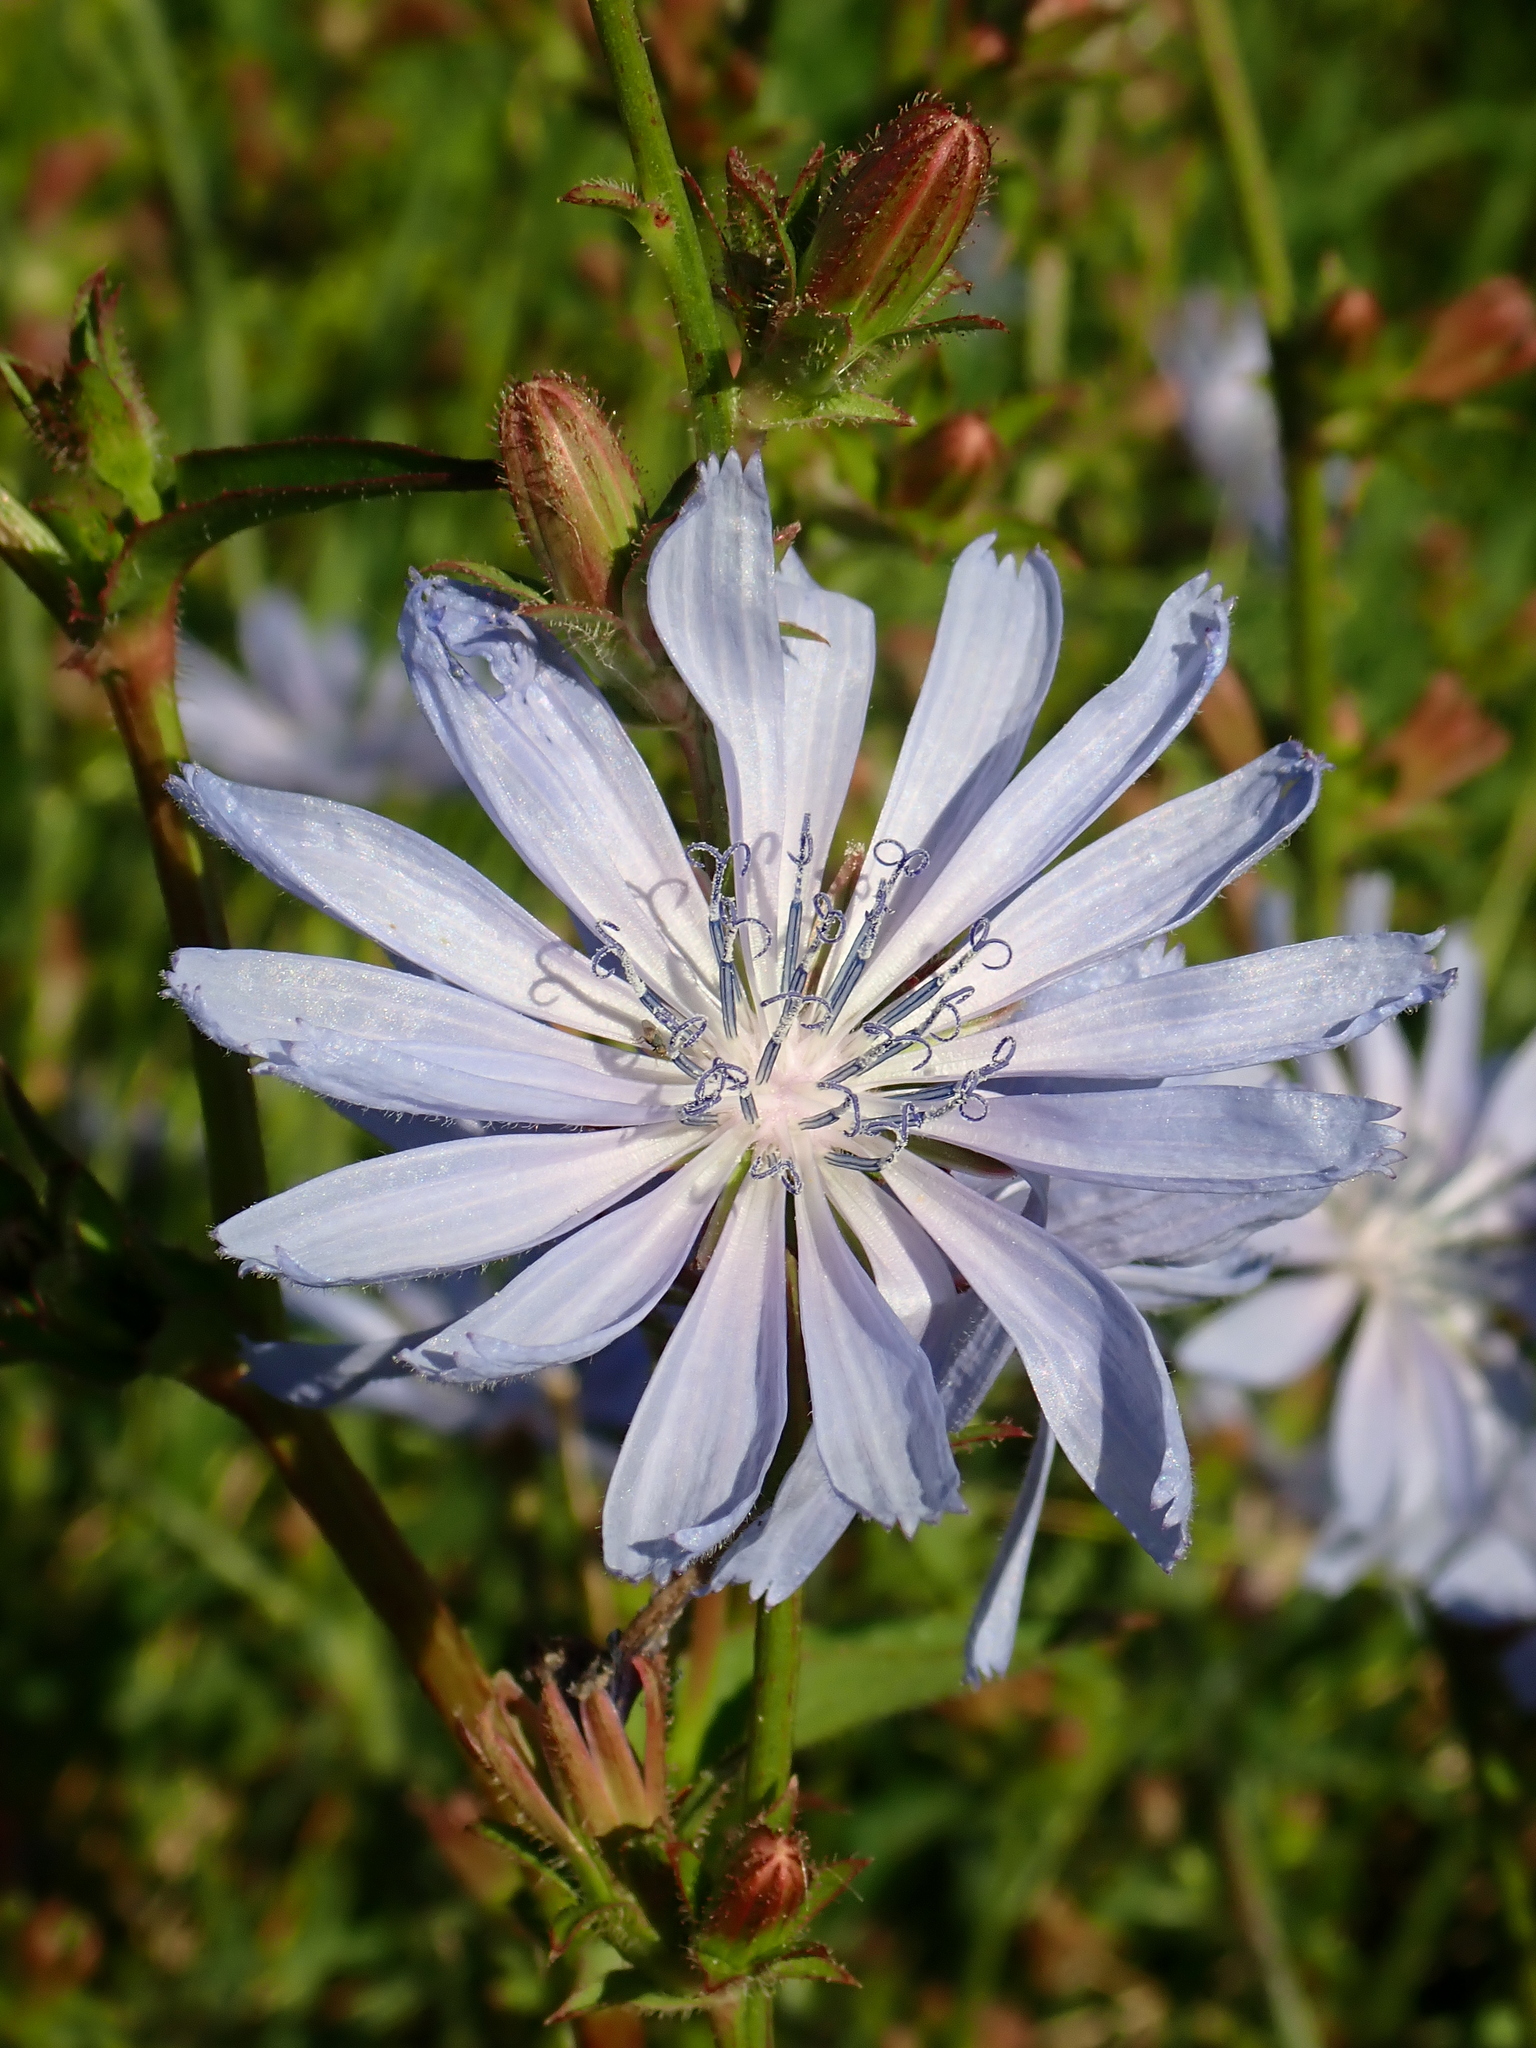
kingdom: Plantae
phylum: Tracheophyta
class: Magnoliopsida
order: Asterales
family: Asteraceae
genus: Cichorium
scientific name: Cichorium intybus
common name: Chicory
